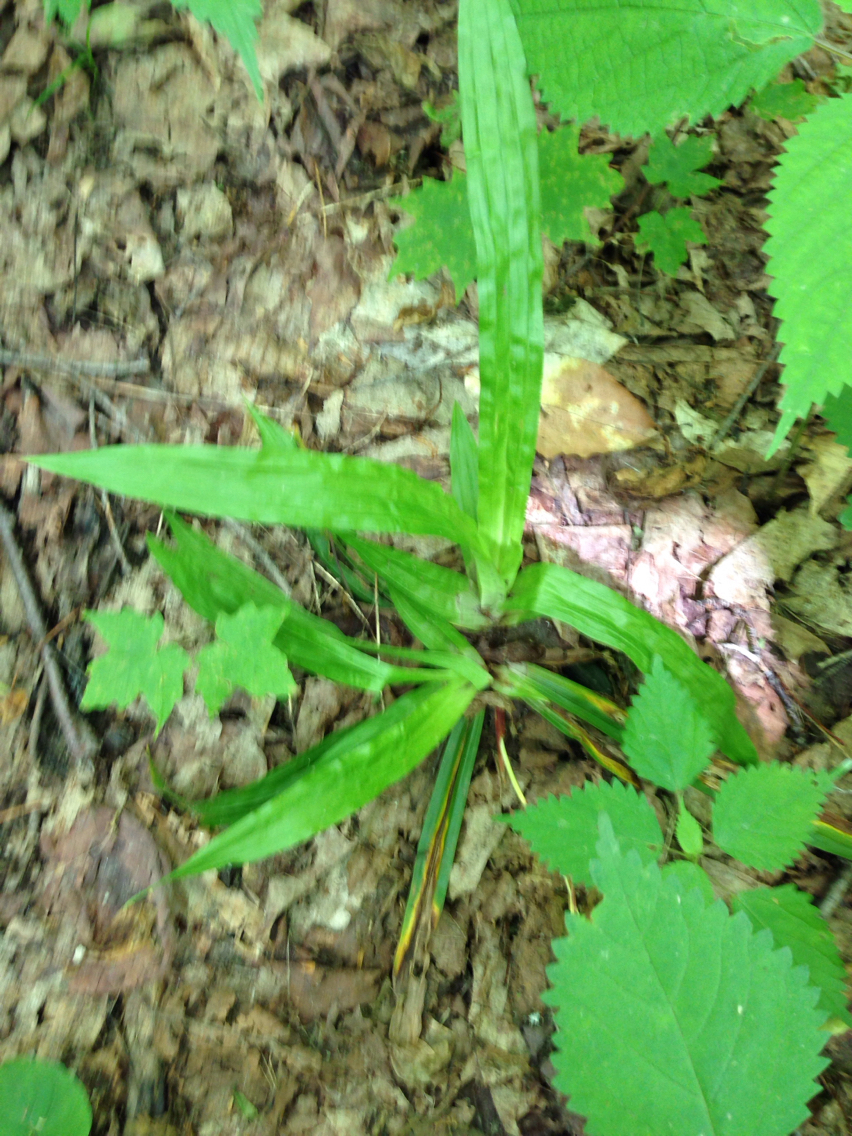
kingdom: Plantae
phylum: Tracheophyta
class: Liliopsida
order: Poales
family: Cyperaceae
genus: Carex
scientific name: Carex plantaginea
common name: Plantain-leaved sedge
